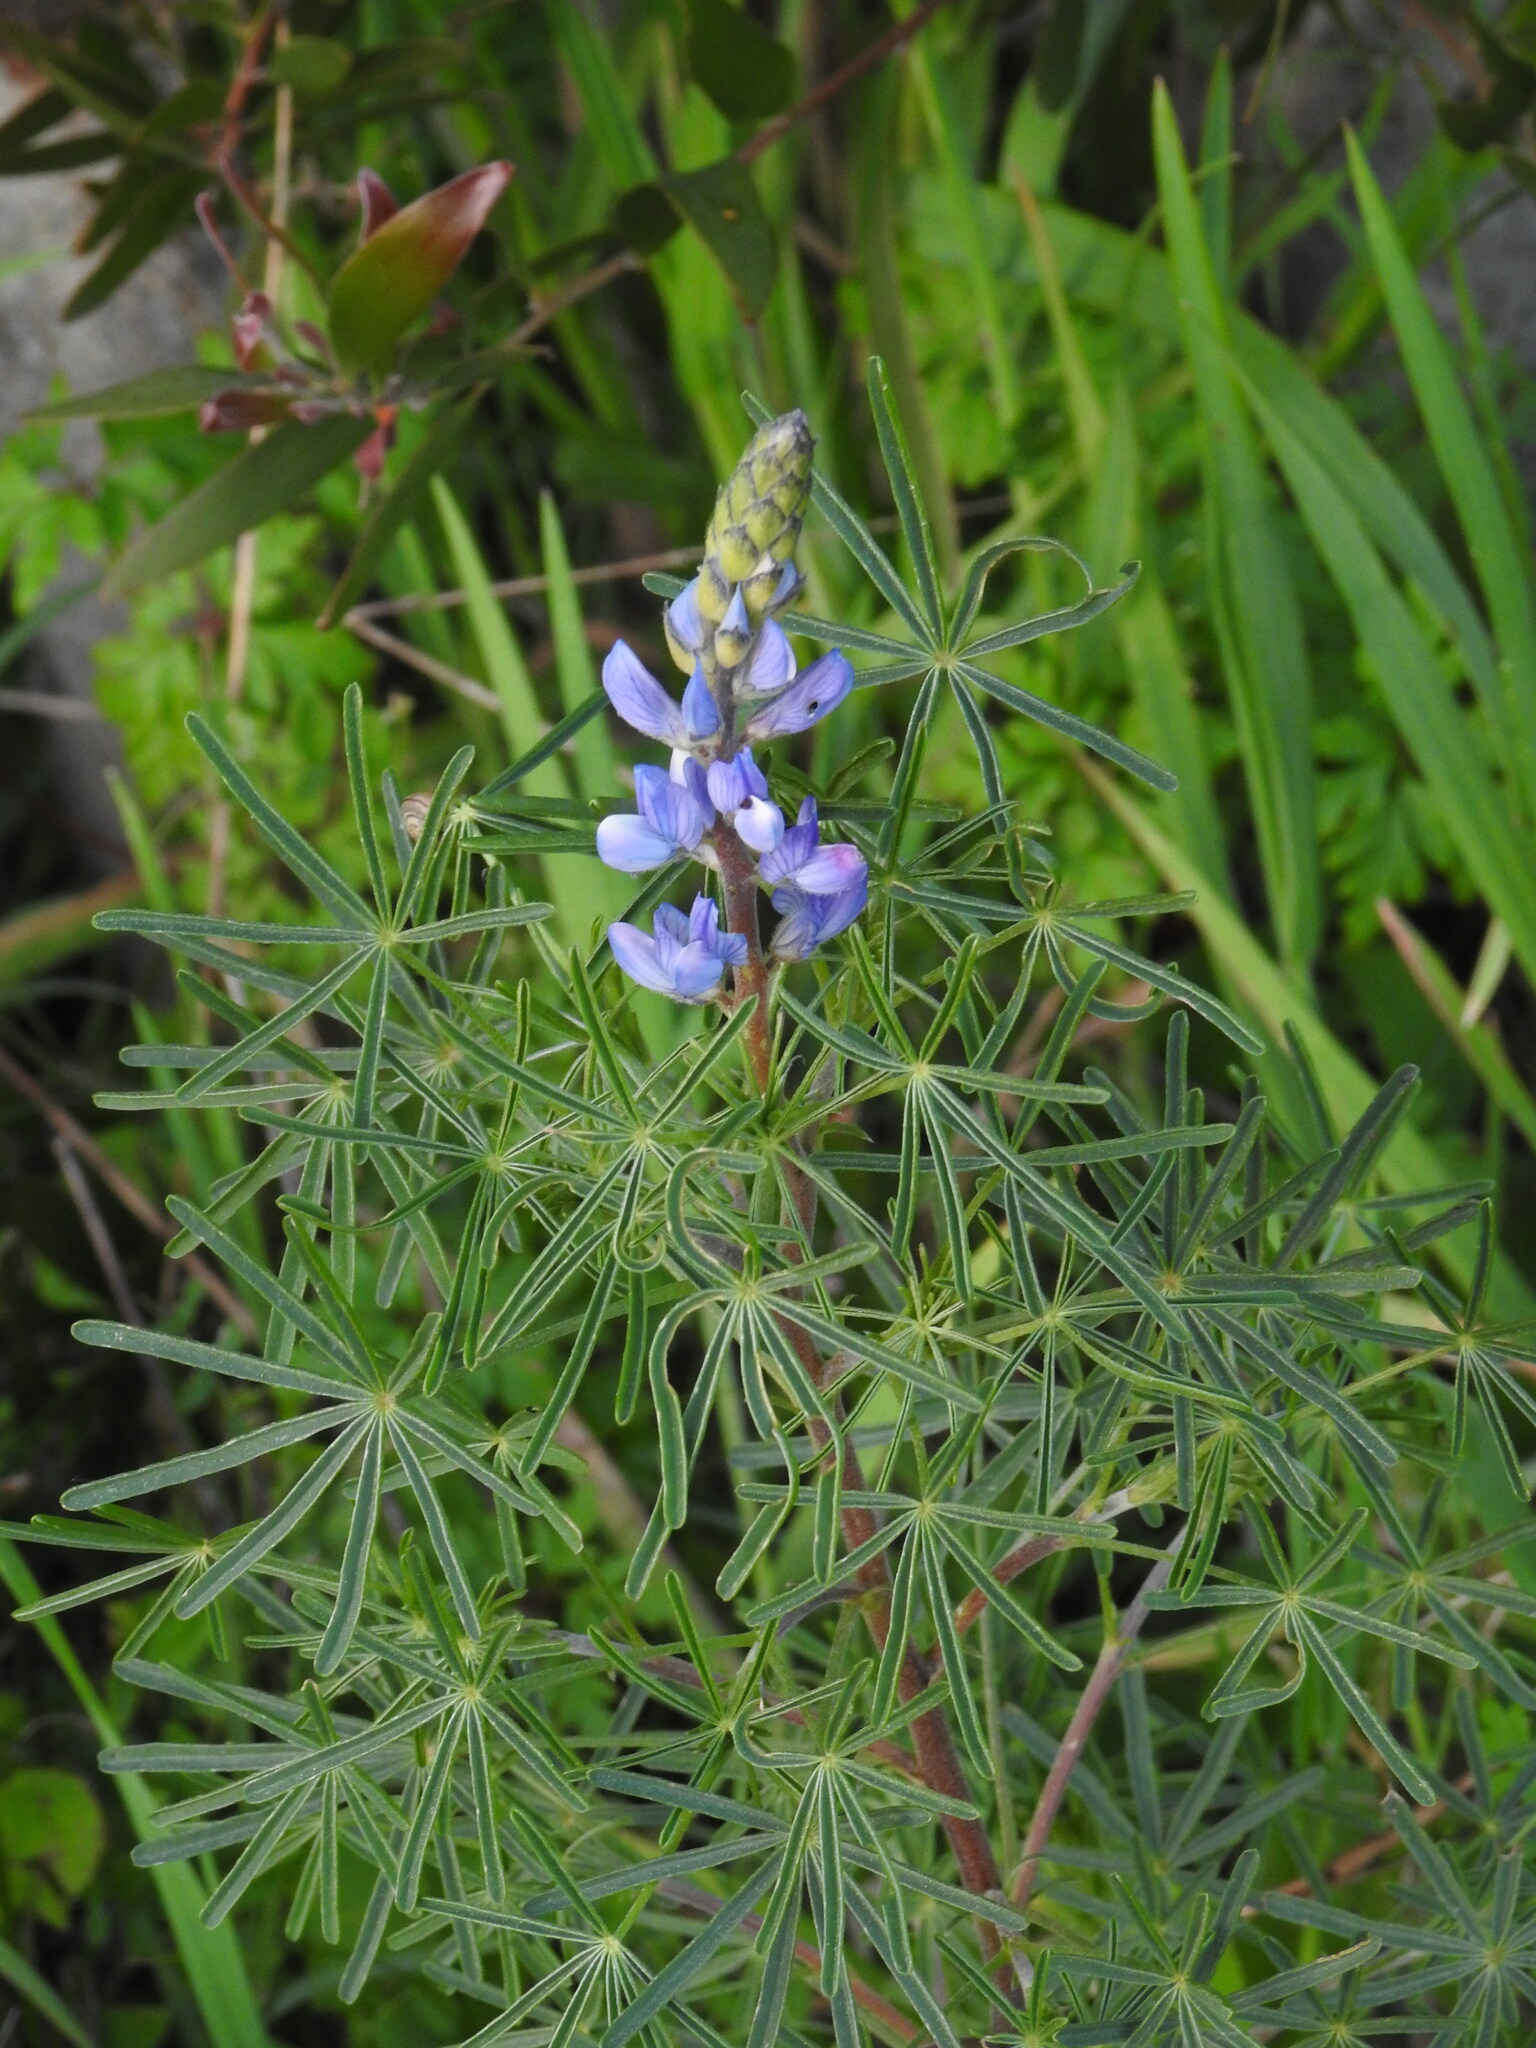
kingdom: Plantae
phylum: Tracheophyta
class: Magnoliopsida
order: Fabales
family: Fabaceae
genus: Lupinus
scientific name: Lupinus angustifolius
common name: Narrow-leaved lupin
